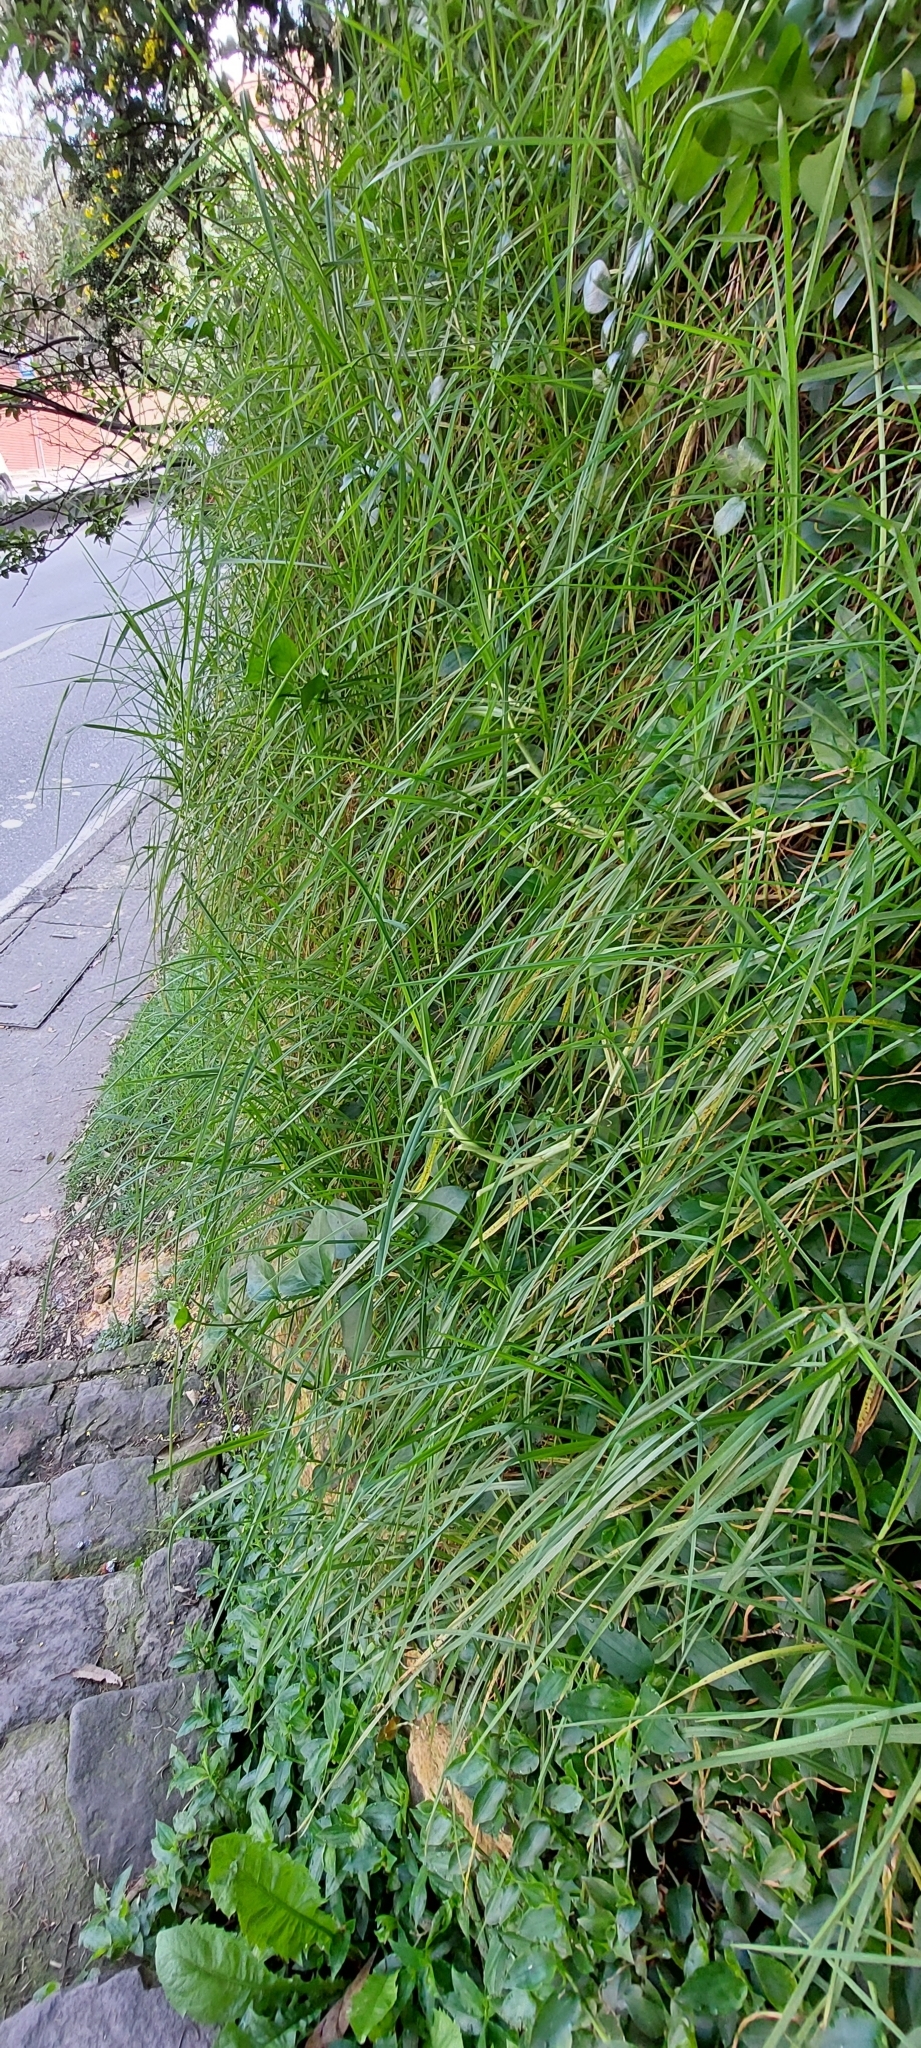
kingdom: Plantae
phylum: Tracheophyta
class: Liliopsida
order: Poales
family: Poaceae
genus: Cenchrus
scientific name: Cenchrus clandestinus
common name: Kikuyugrass
